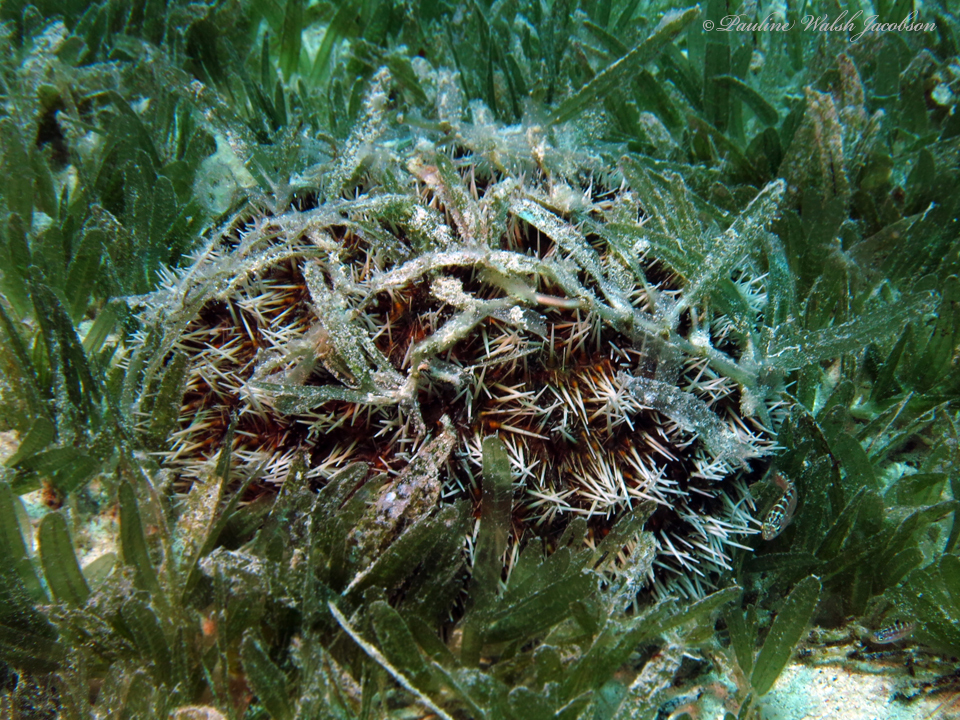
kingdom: Animalia
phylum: Echinodermata
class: Echinoidea
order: Camarodonta
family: Toxopneustidae
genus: Tripneustes
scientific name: Tripneustes ventricosus
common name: West indian sea egg
